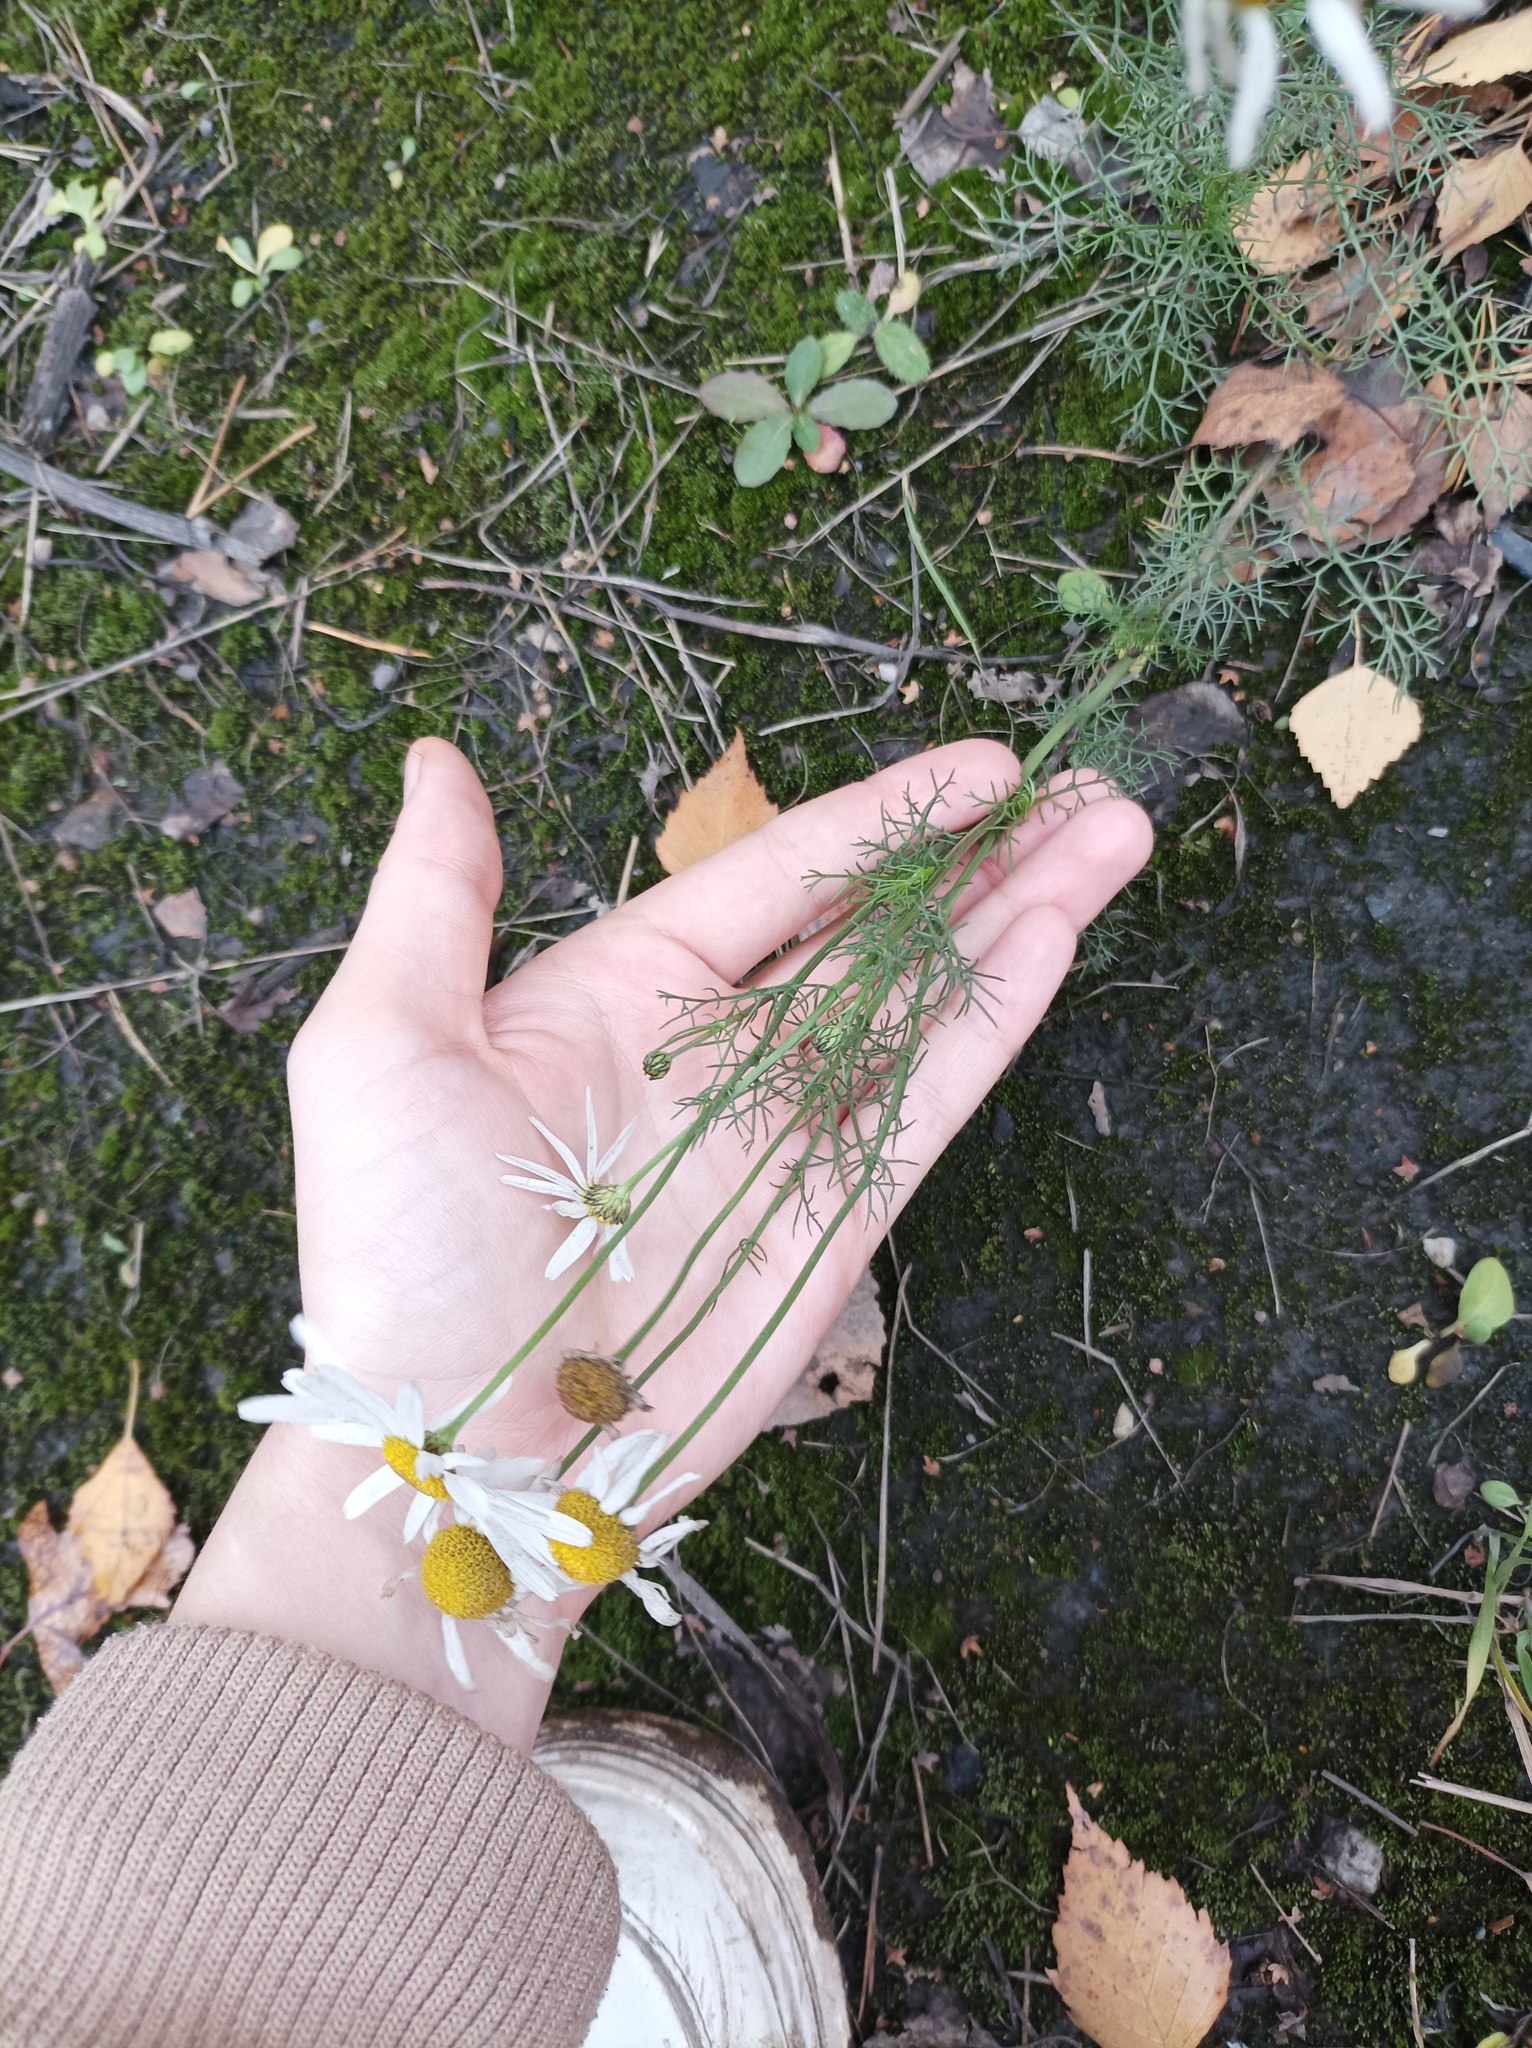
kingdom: Plantae
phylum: Tracheophyta
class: Magnoliopsida
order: Asterales
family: Asteraceae
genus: Tripleurospermum
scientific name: Tripleurospermum inodorum
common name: Scentless mayweed
